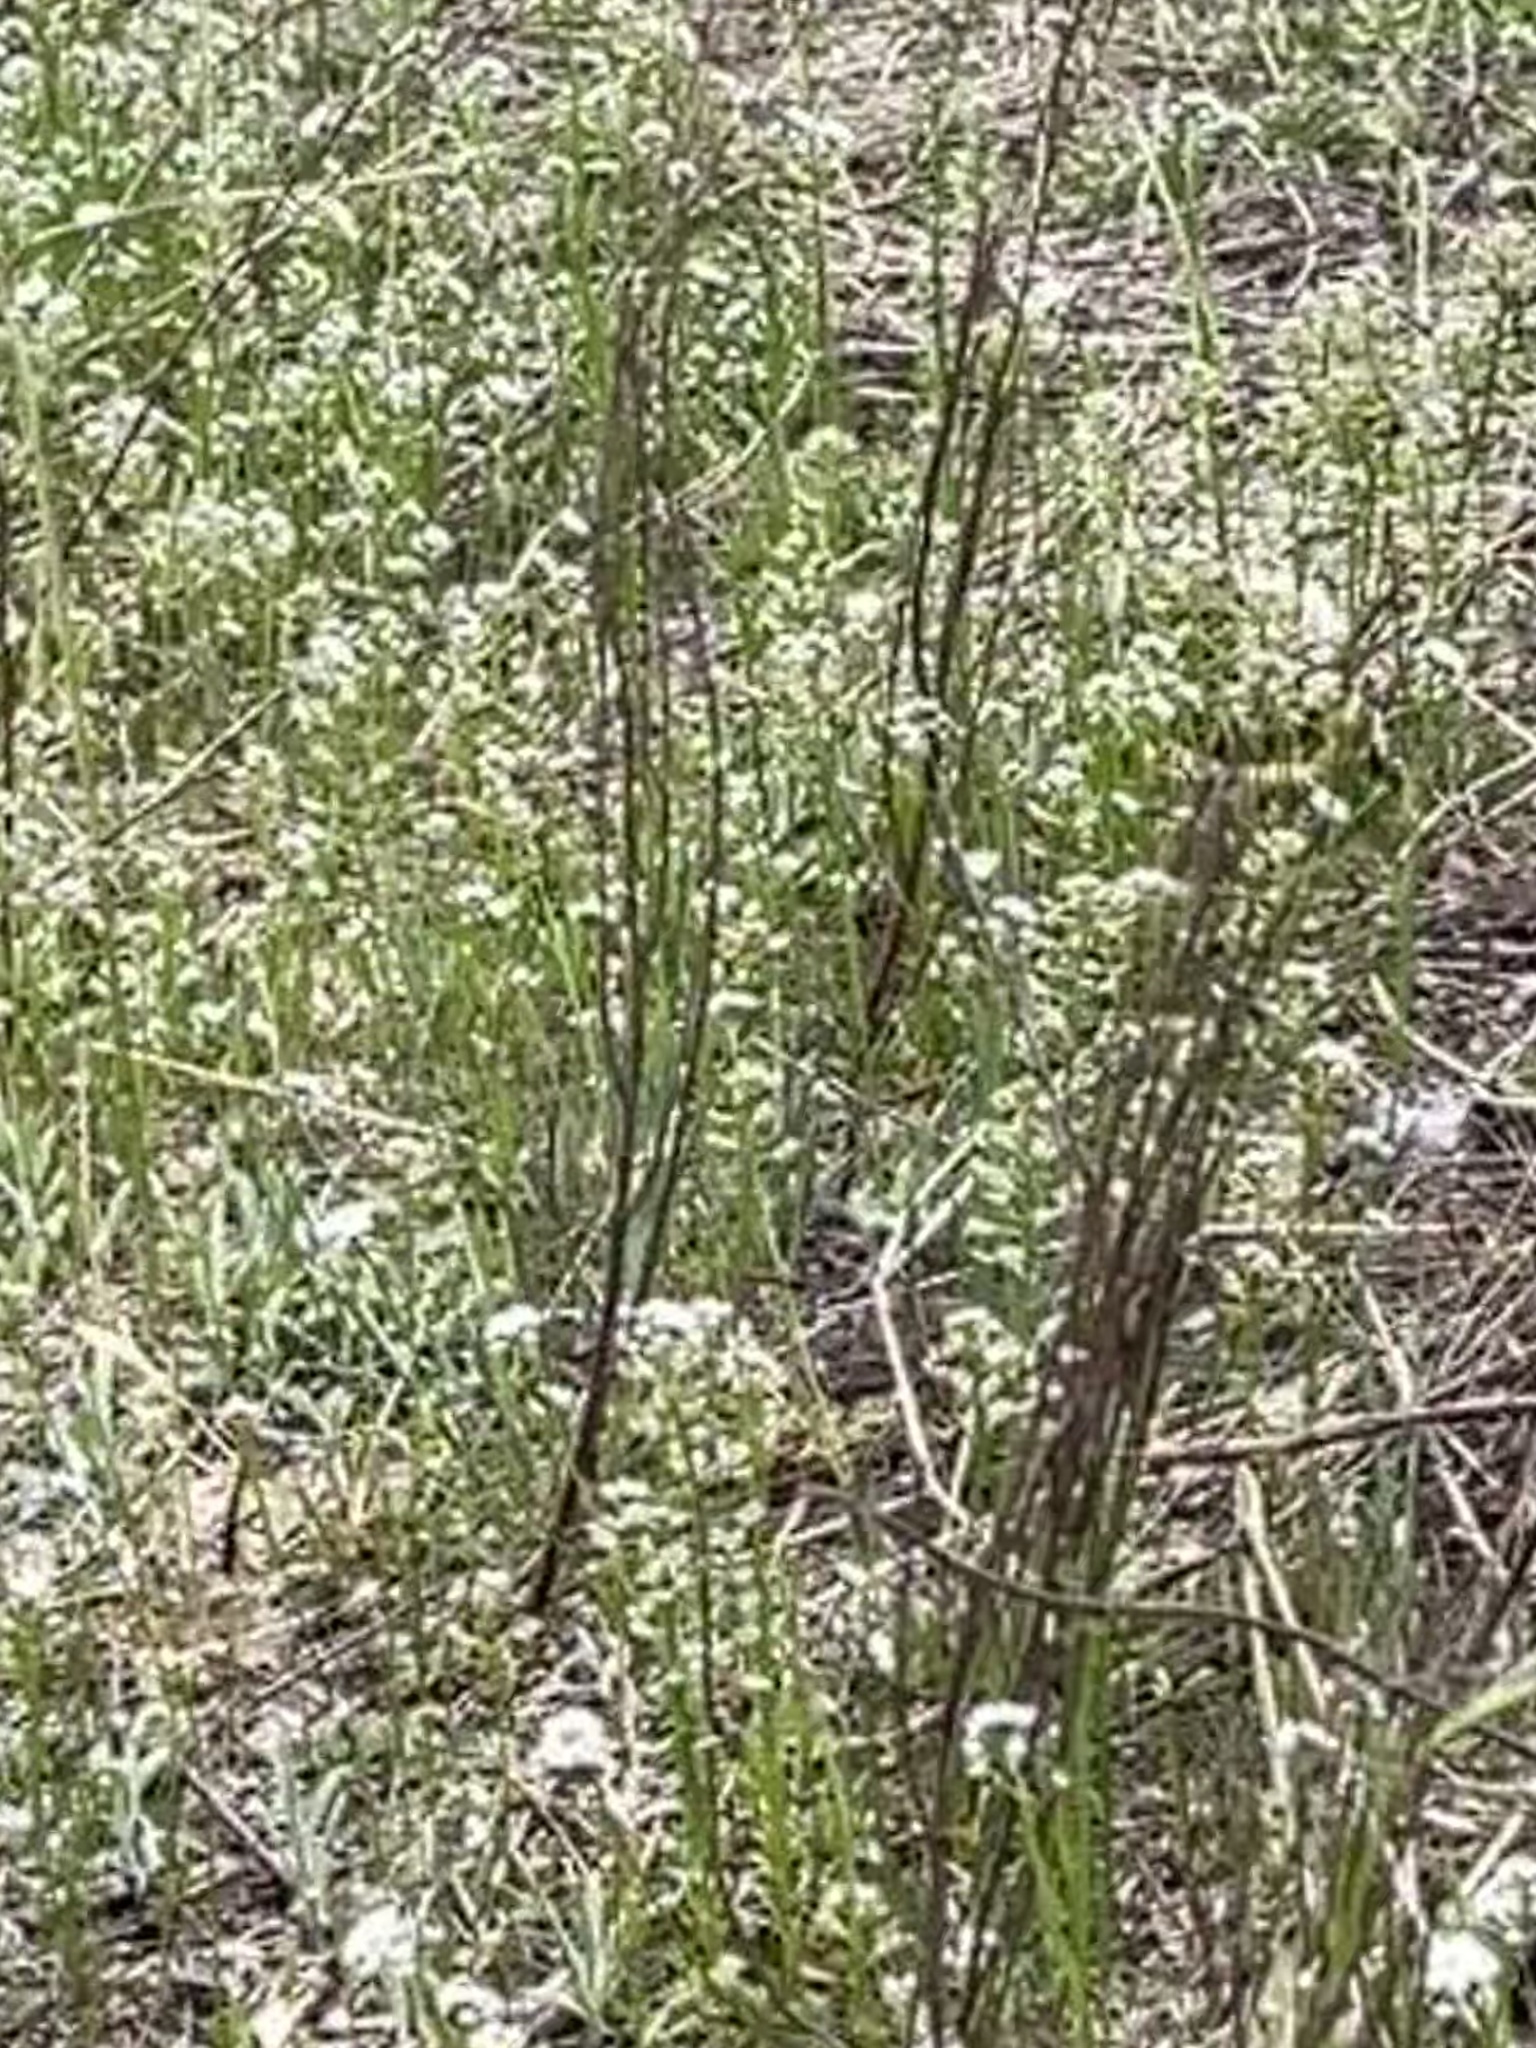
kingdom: Plantae
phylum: Tracheophyta
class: Magnoliopsida
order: Brassicales
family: Brassicaceae
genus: Teesdalia
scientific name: Teesdalia nudicaulis
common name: Shepherd's cress
